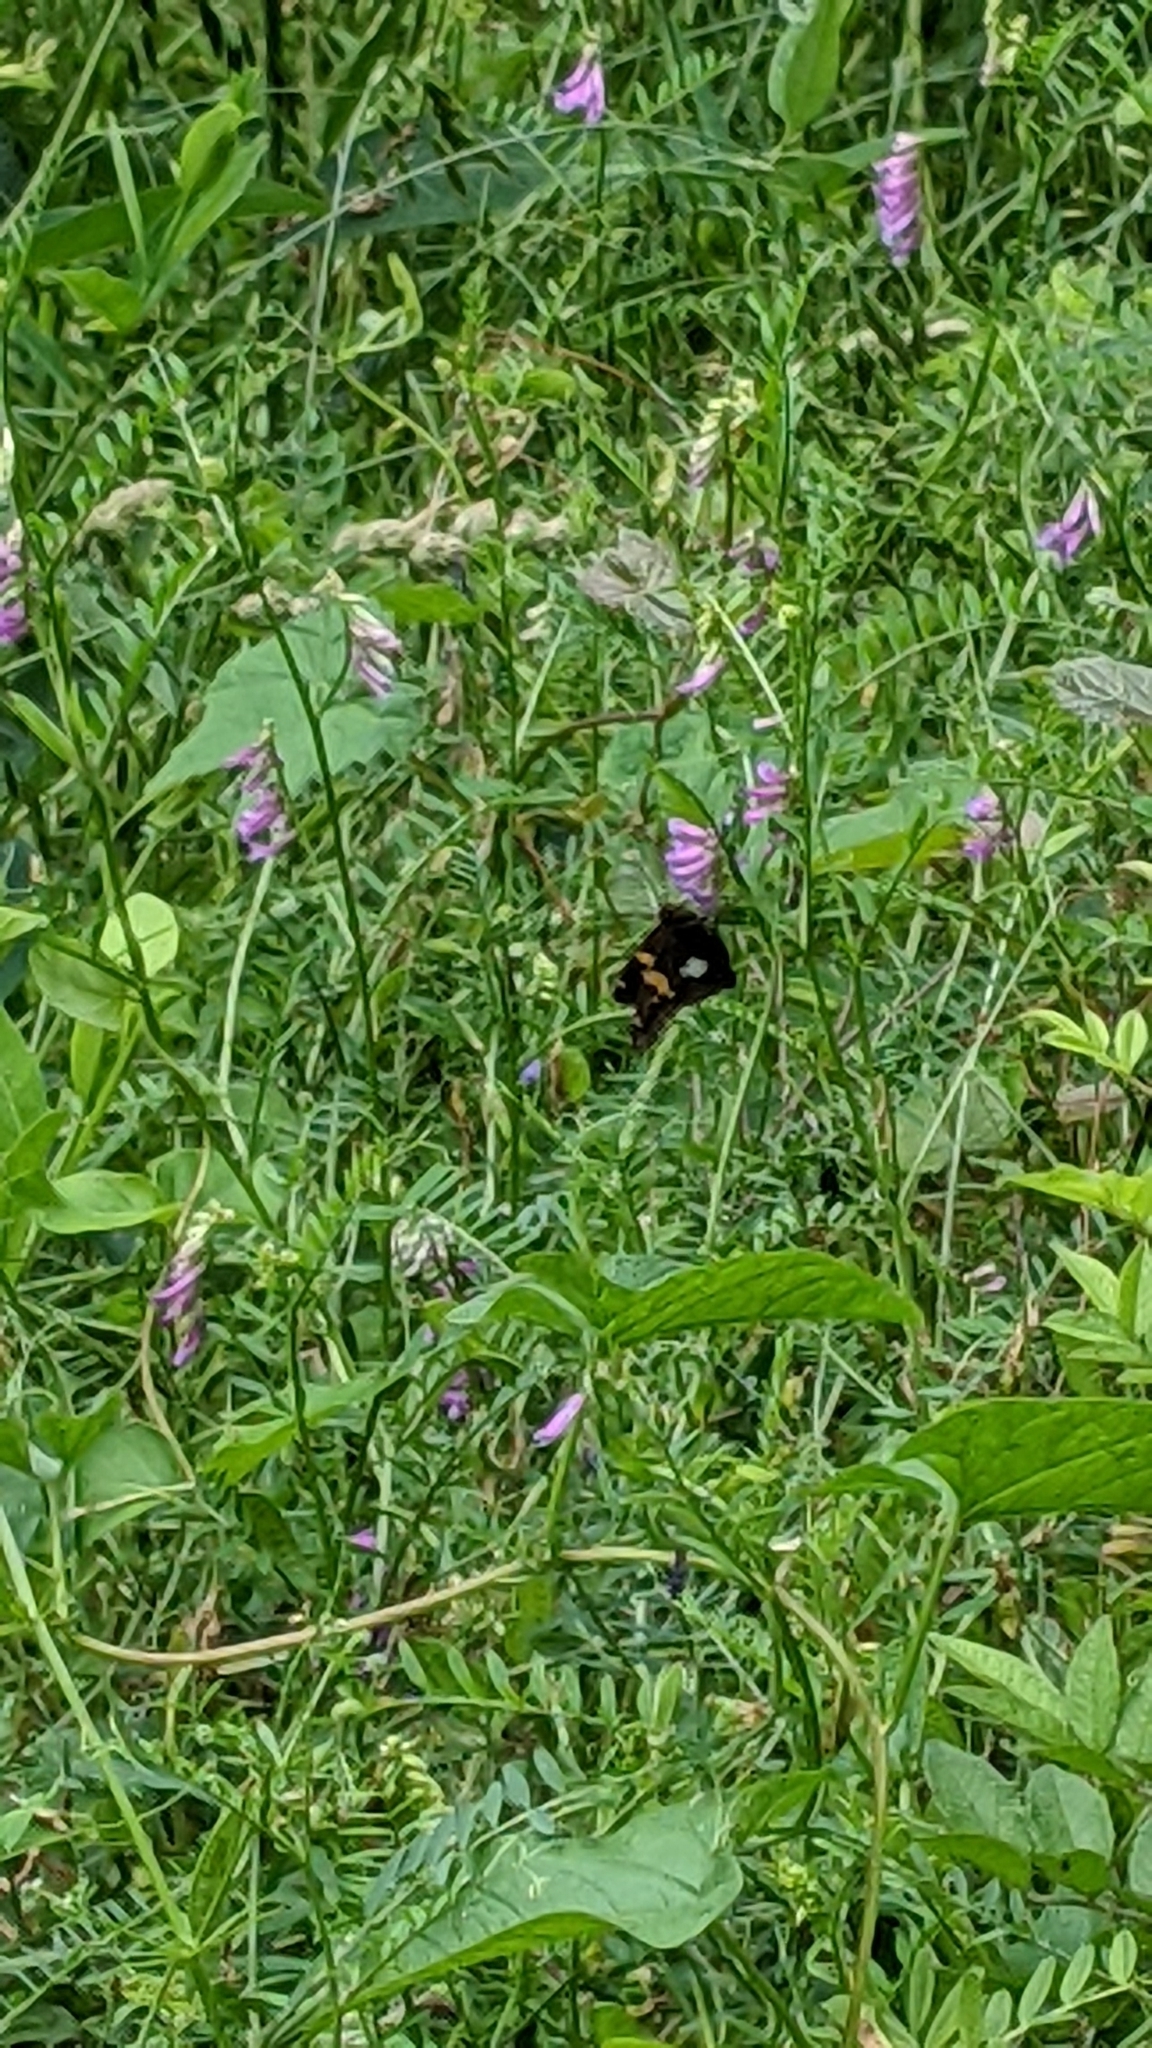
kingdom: Animalia
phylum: Arthropoda
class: Insecta
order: Lepidoptera
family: Hesperiidae
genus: Epargyreus
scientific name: Epargyreus clarus
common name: Silver-spotted skipper
